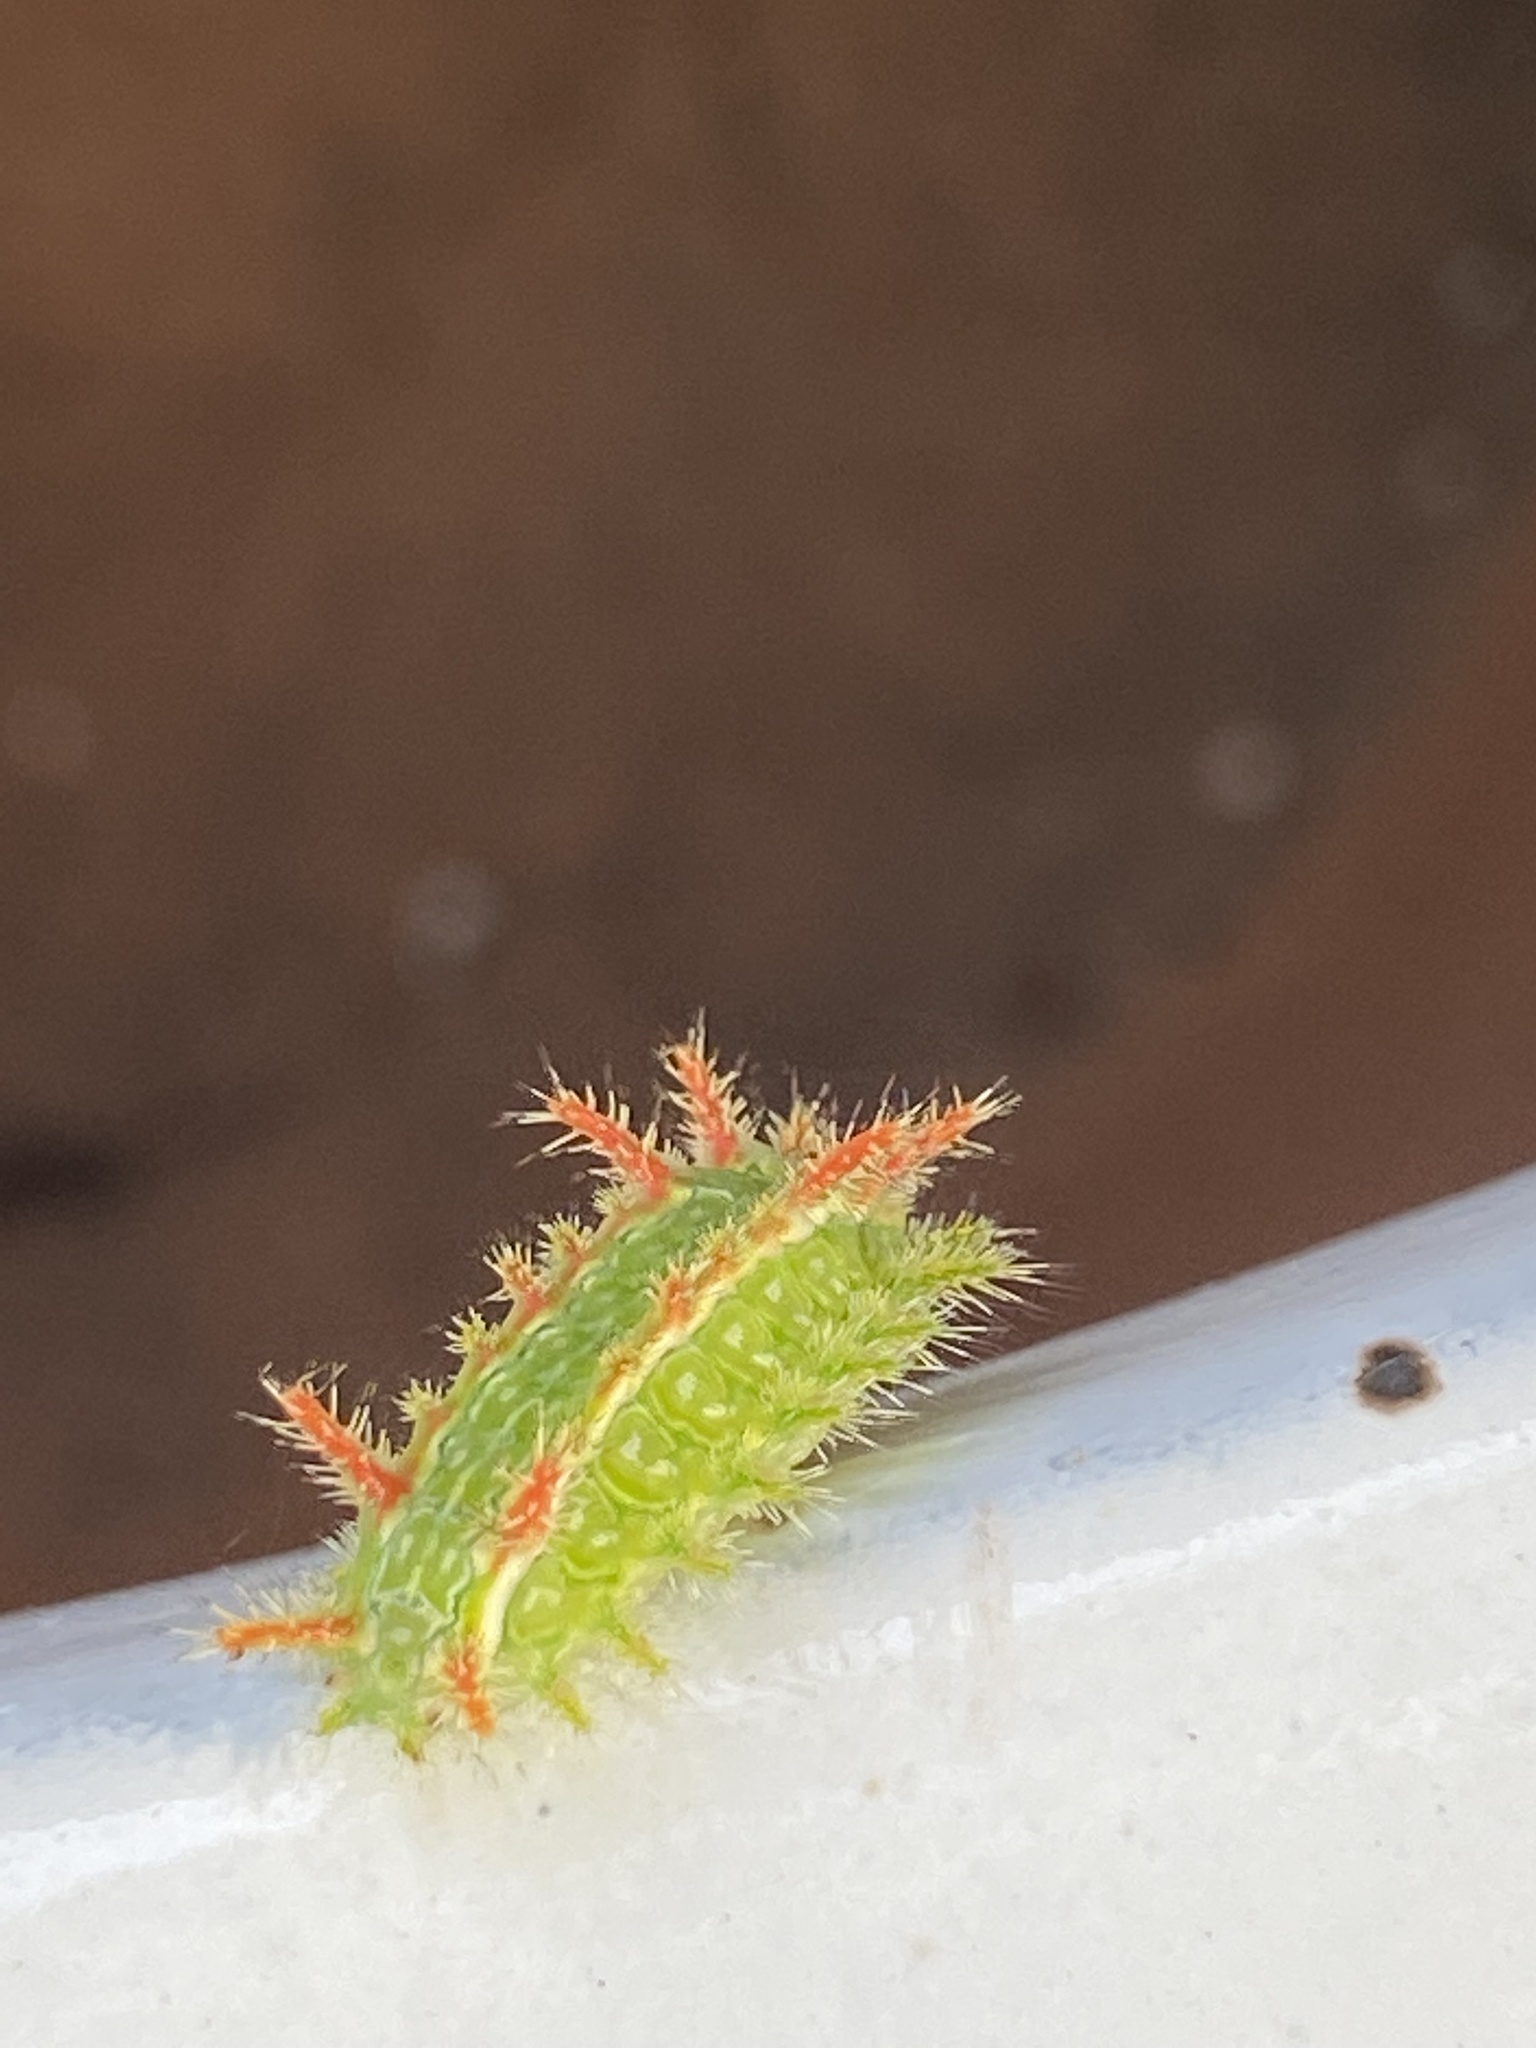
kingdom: Animalia
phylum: Arthropoda
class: Insecta
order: Lepidoptera
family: Limacodidae
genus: Euclea
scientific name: Euclea incisa
